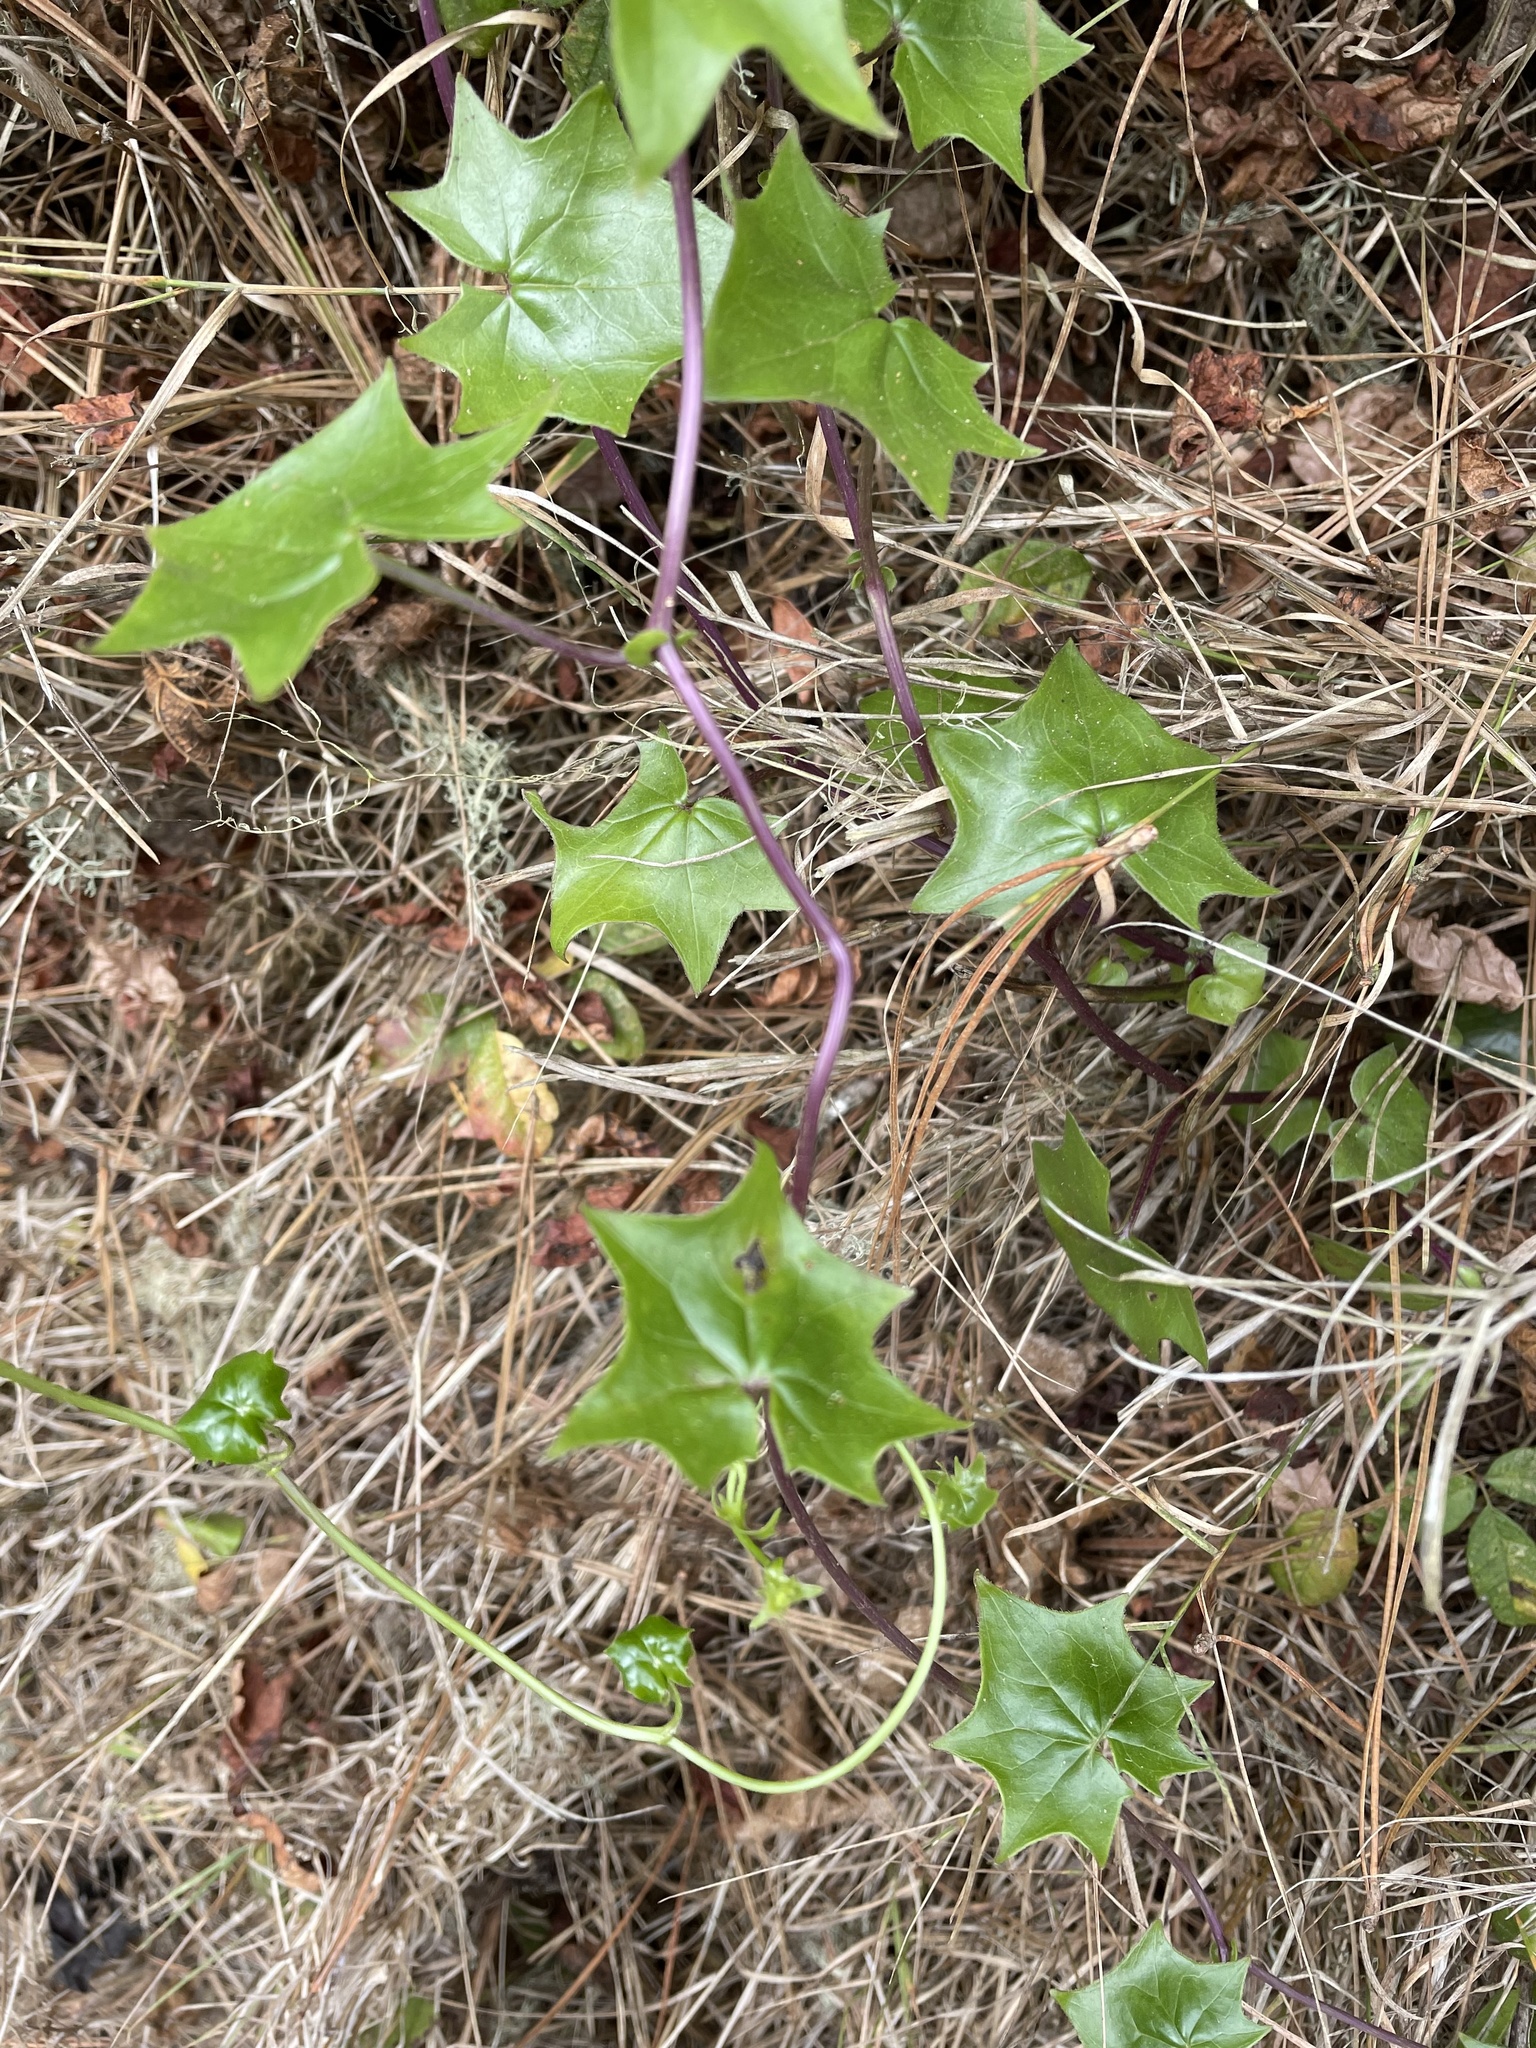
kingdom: Plantae
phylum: Tracheophyta
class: Magnoliopsida
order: Asterales
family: Asteraceae
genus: Delairea
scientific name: Delairea odorata
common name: Cape-ivy
